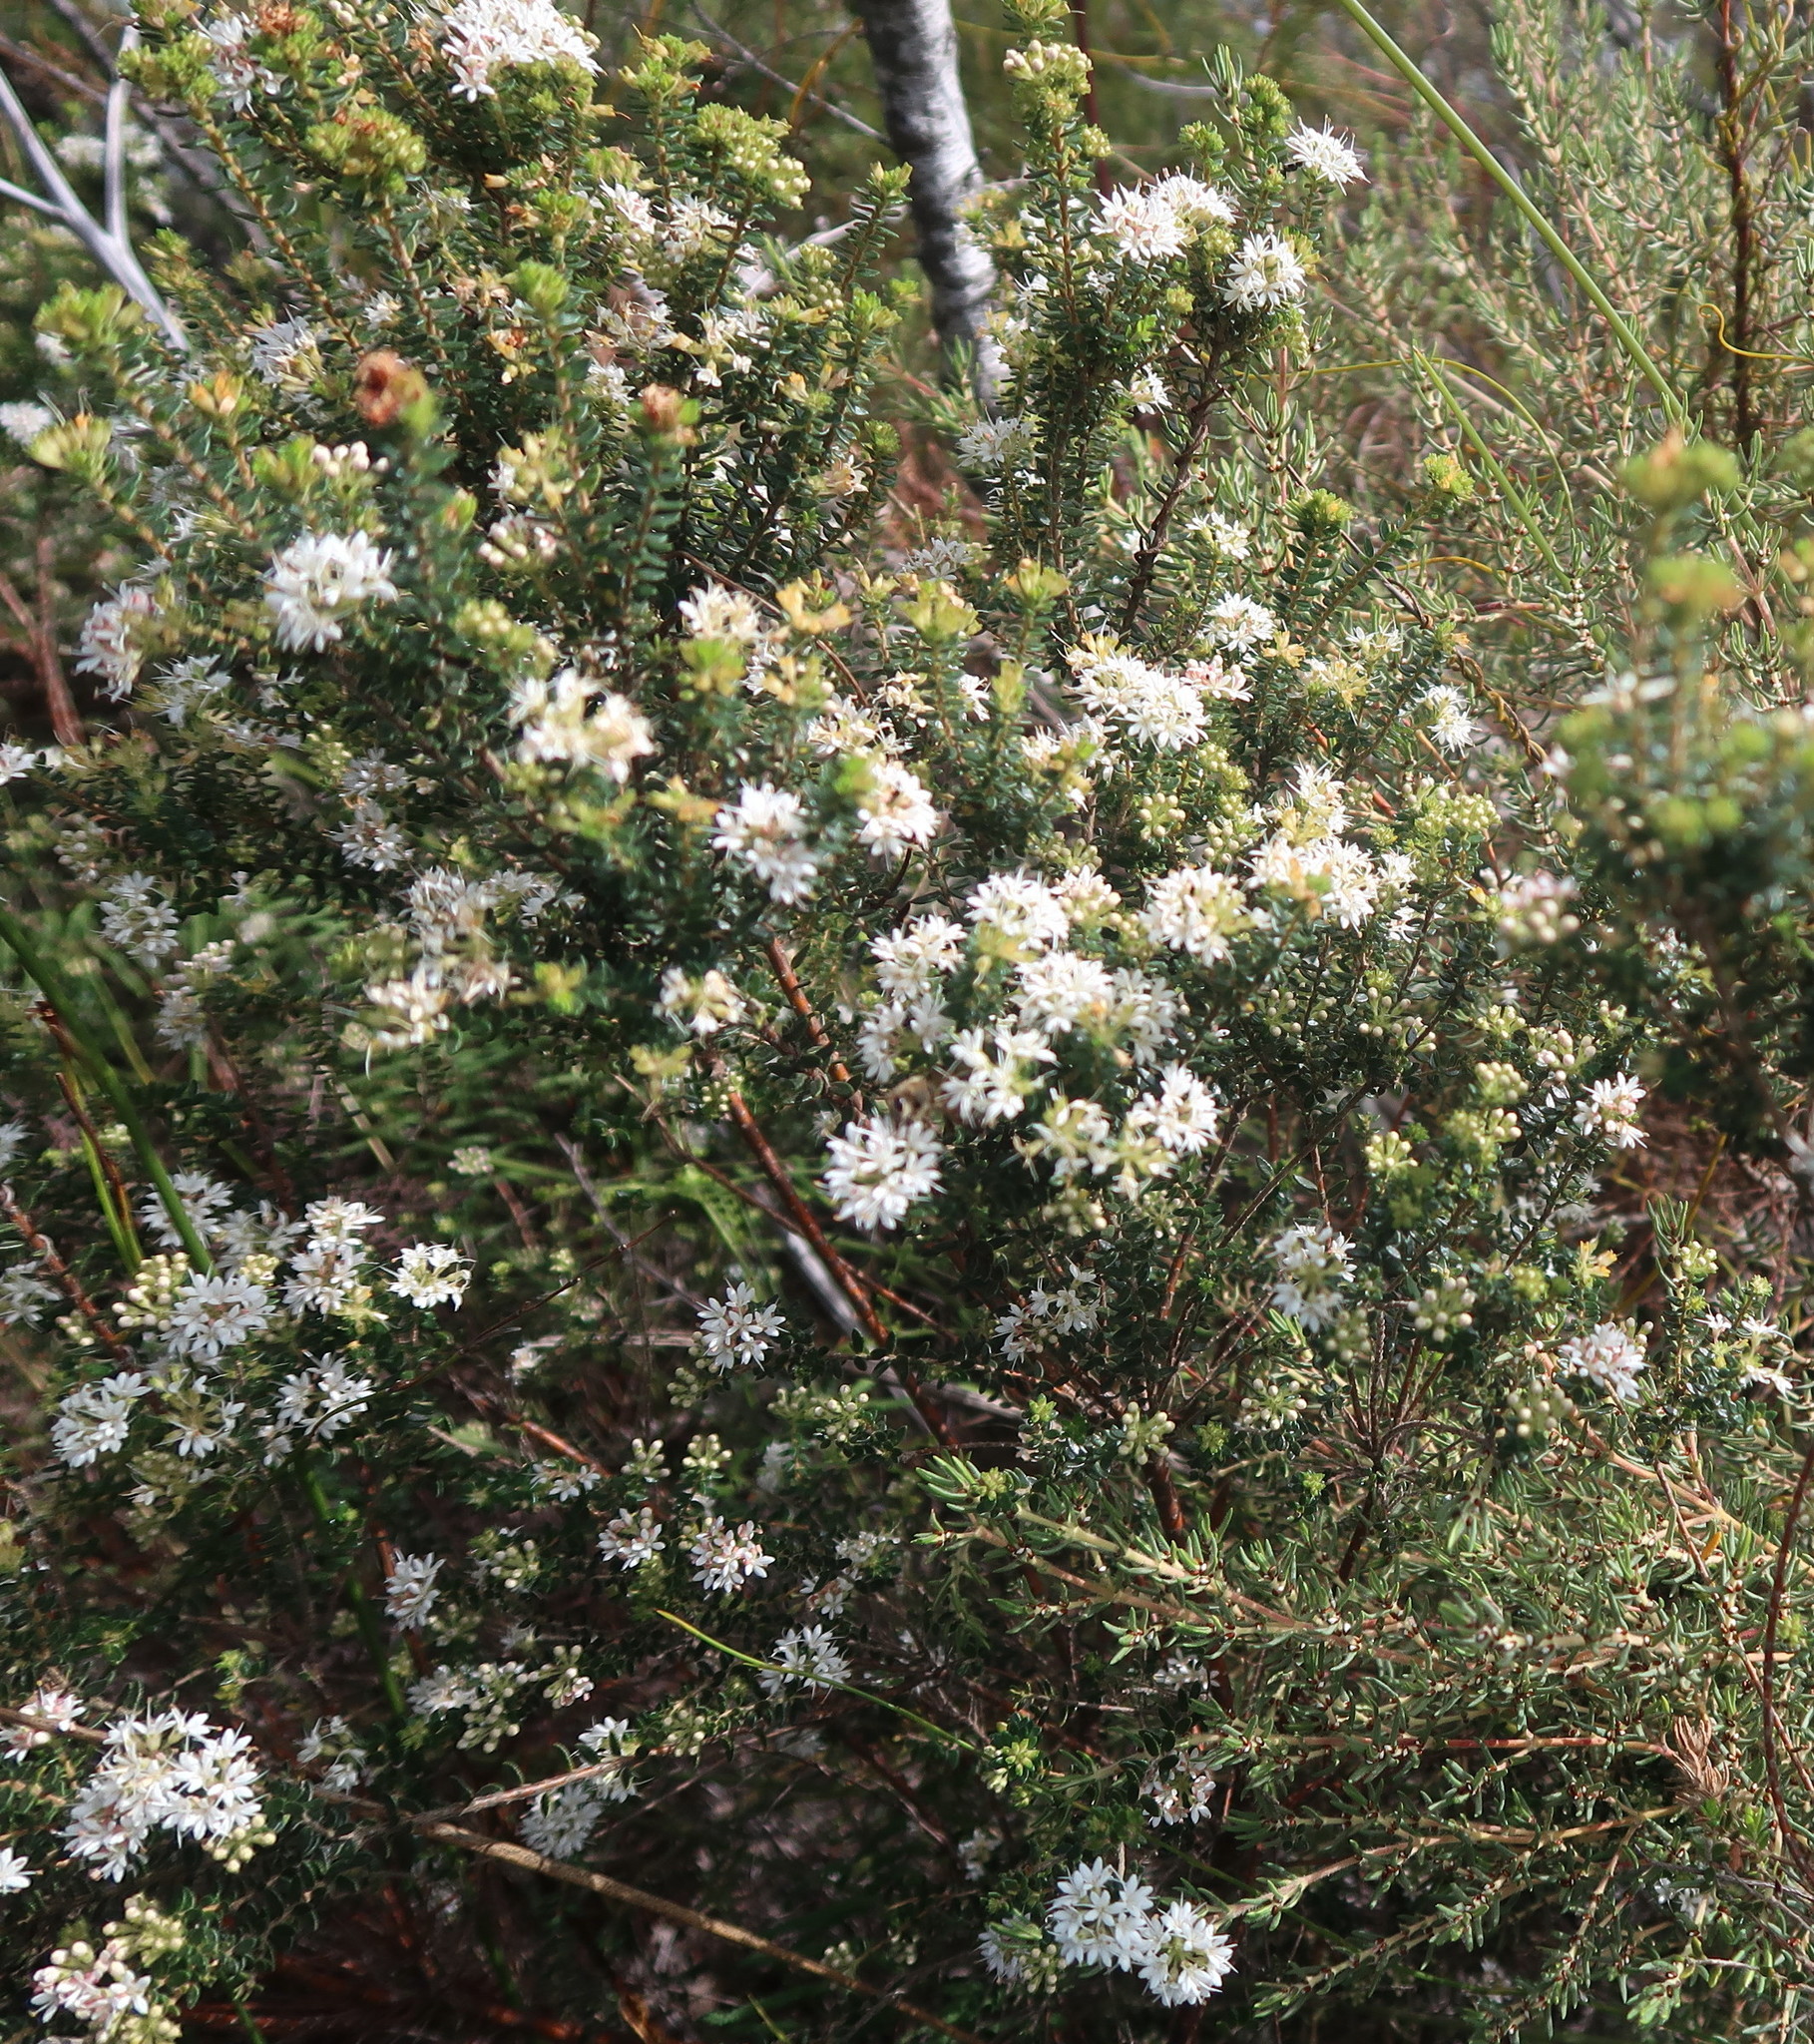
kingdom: Plantae
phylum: Tracheophyta
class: Magnoliopsida
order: Sapindales
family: Rutaceae
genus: Agathosma
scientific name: Agathosma planifolia
